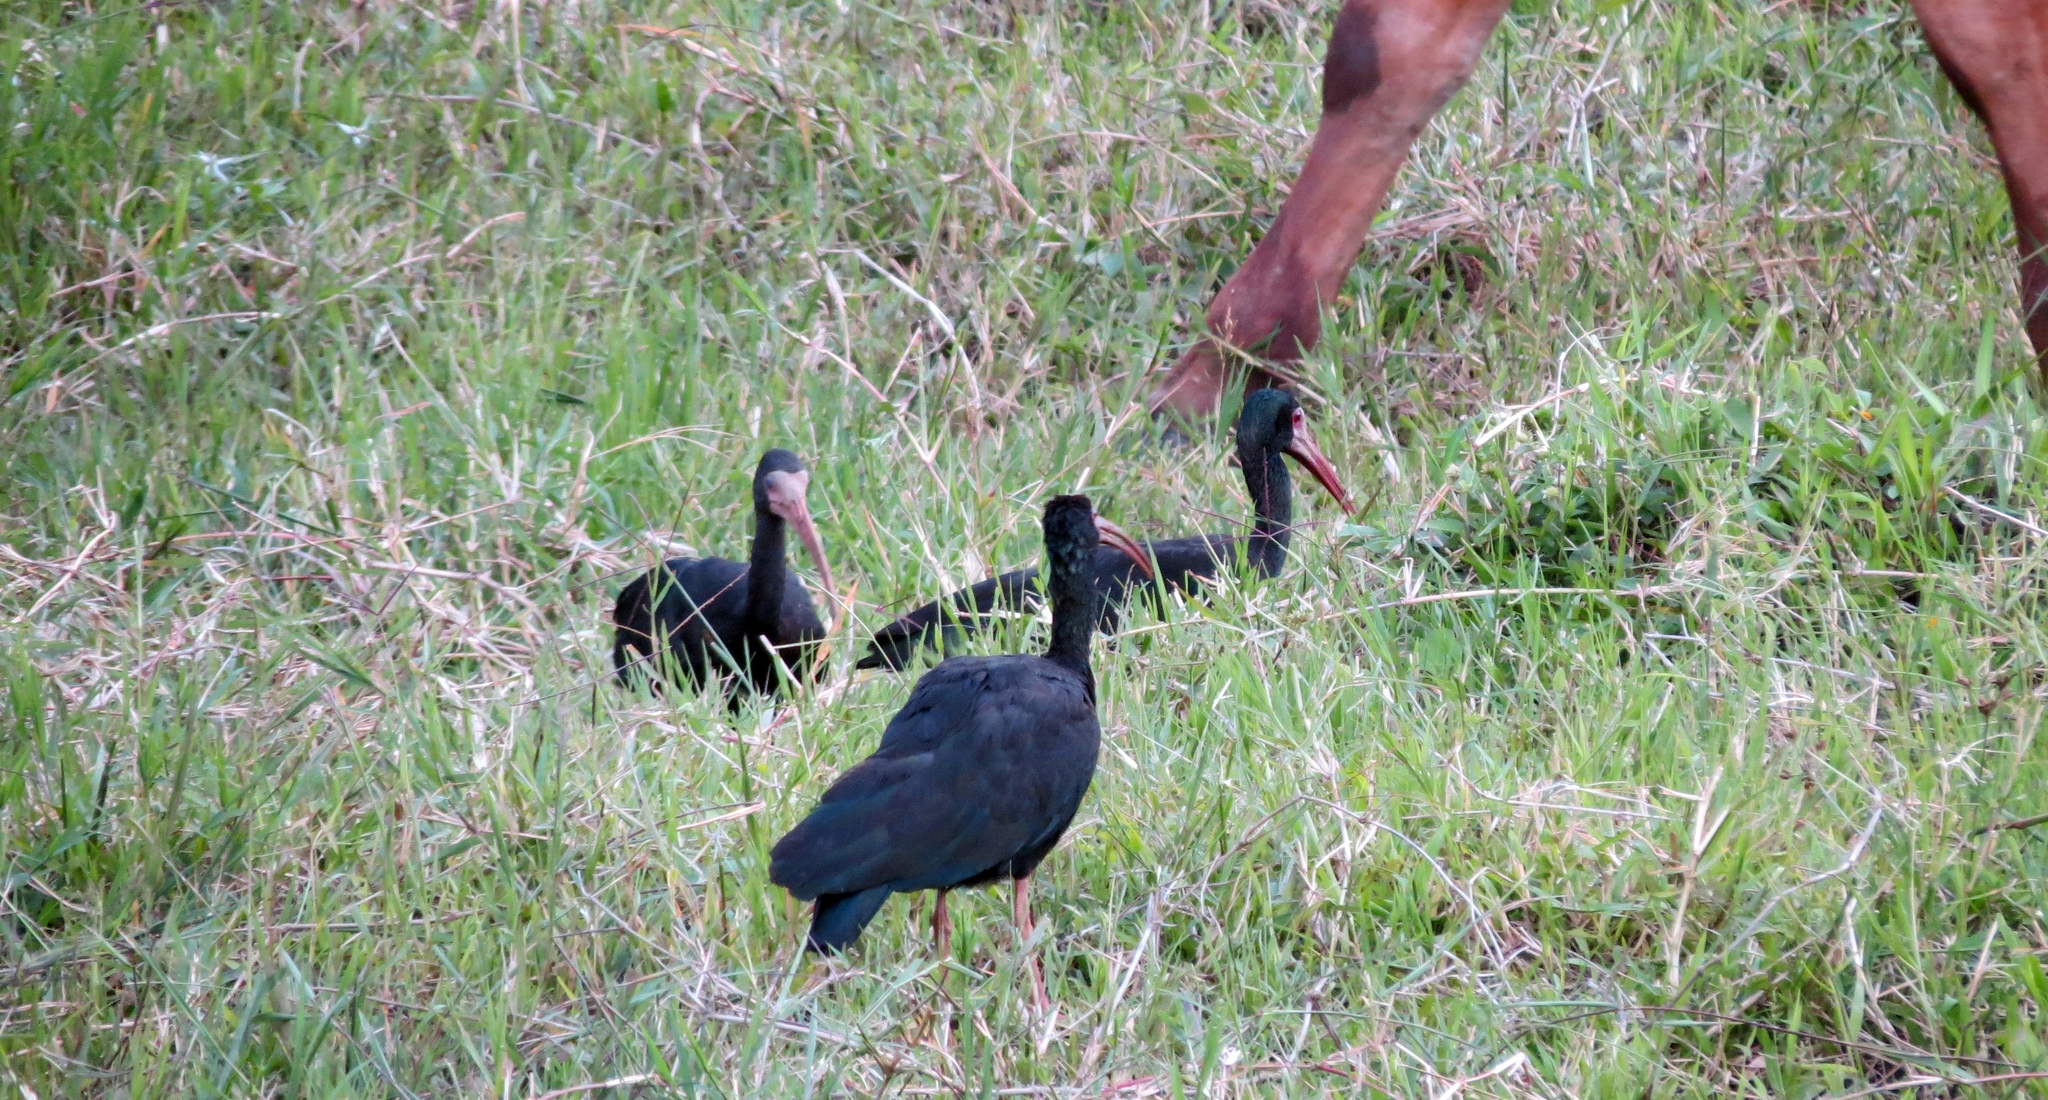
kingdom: Animalia
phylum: Chordata
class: Aves
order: Pelecaniformes
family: Threskiornithidae
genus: Phimosus
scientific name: Phimosus infuscatus
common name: Bare-faced ibis
